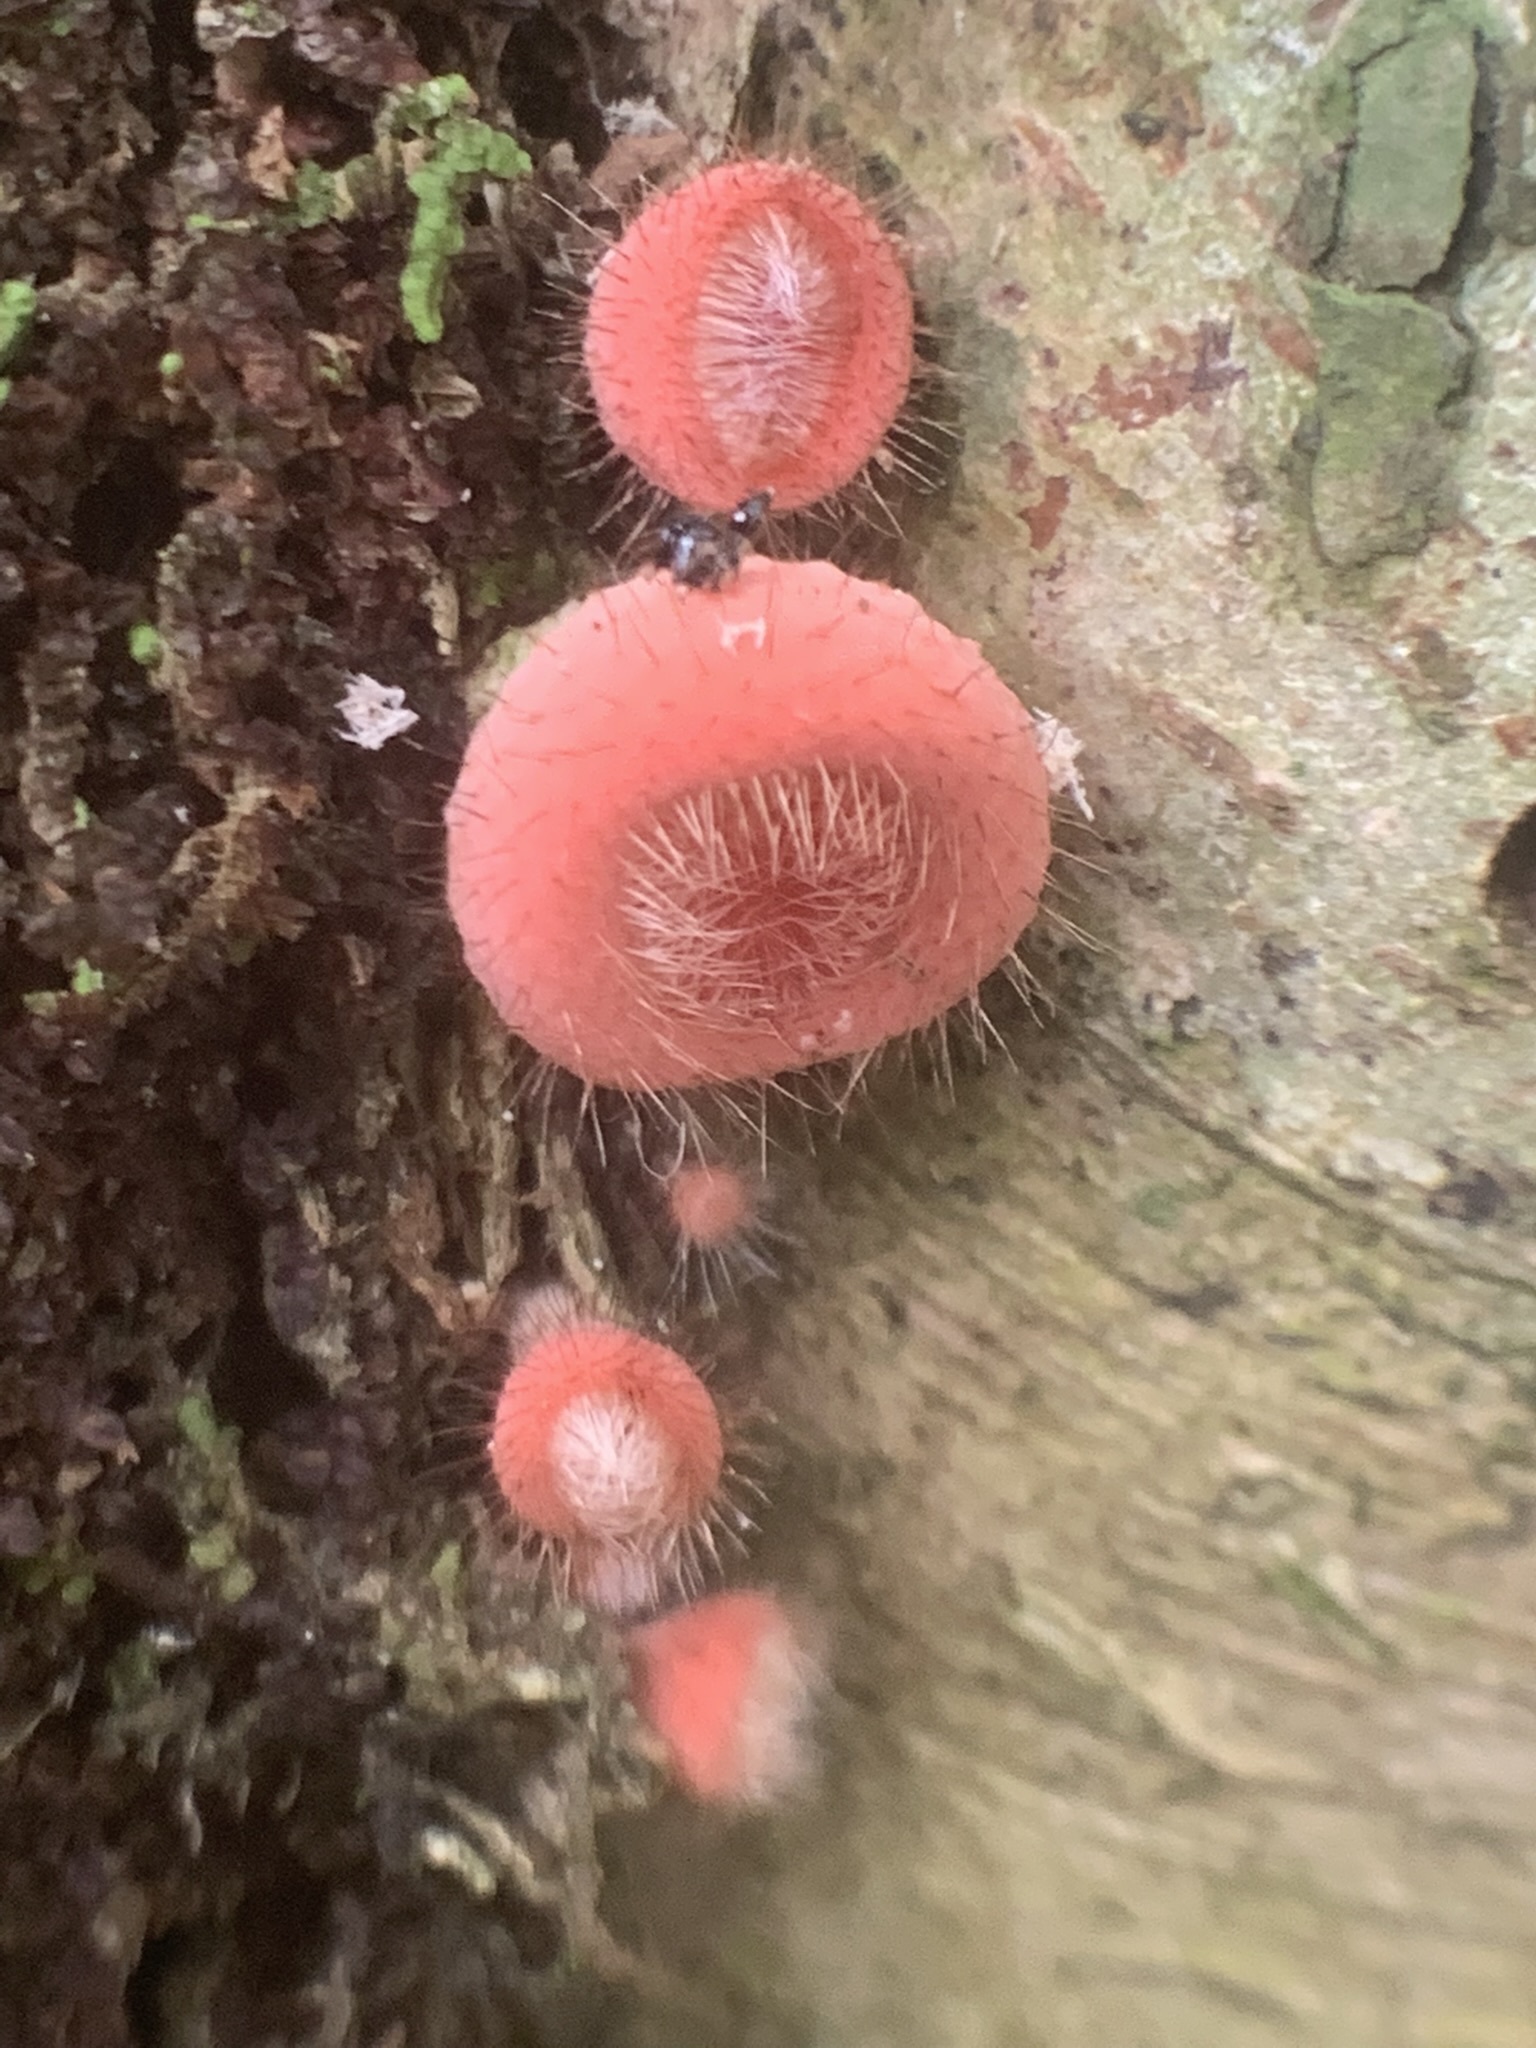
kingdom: Fungi
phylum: Ascomycota
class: Pezizomycetes
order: Pezizales
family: Sarcoscyphaceae
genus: Cookeina
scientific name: Cookeina tricholoma
